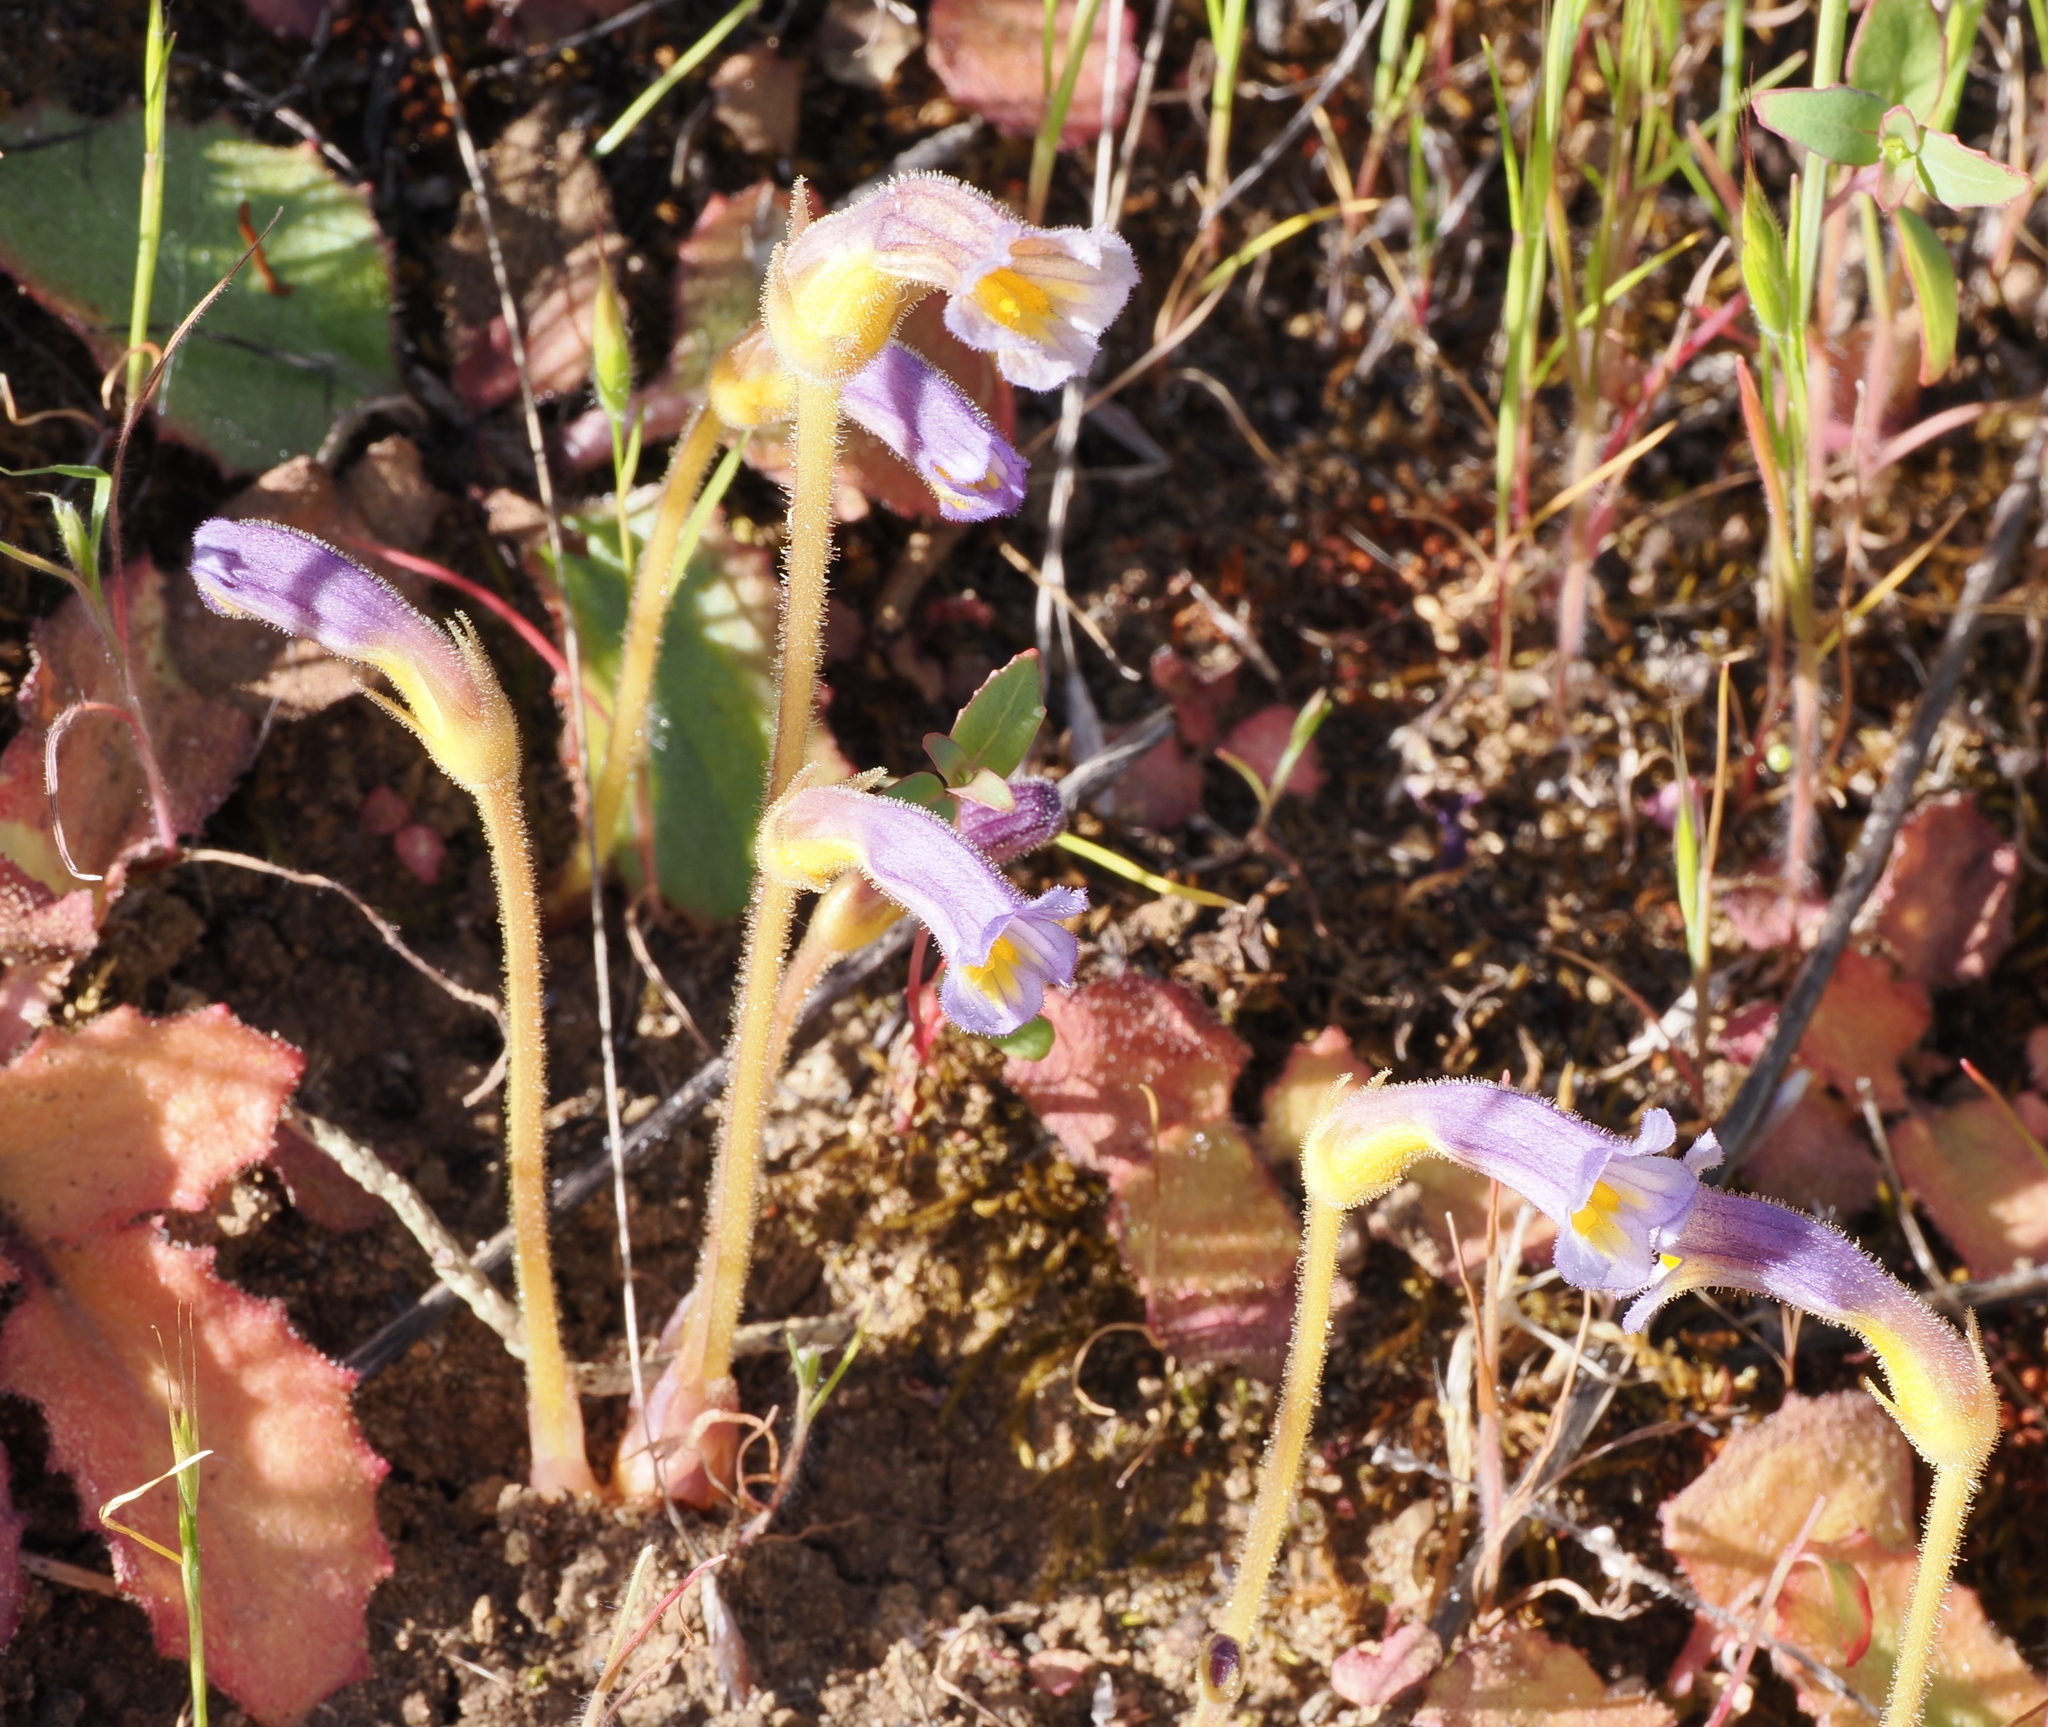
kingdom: Plantae
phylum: Tracheophyta
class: Magnoliopsida
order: Lamiales
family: Orobanchaceae
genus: Aphyllon
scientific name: Aphyllon uniflorum
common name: One-flowered broomrape
